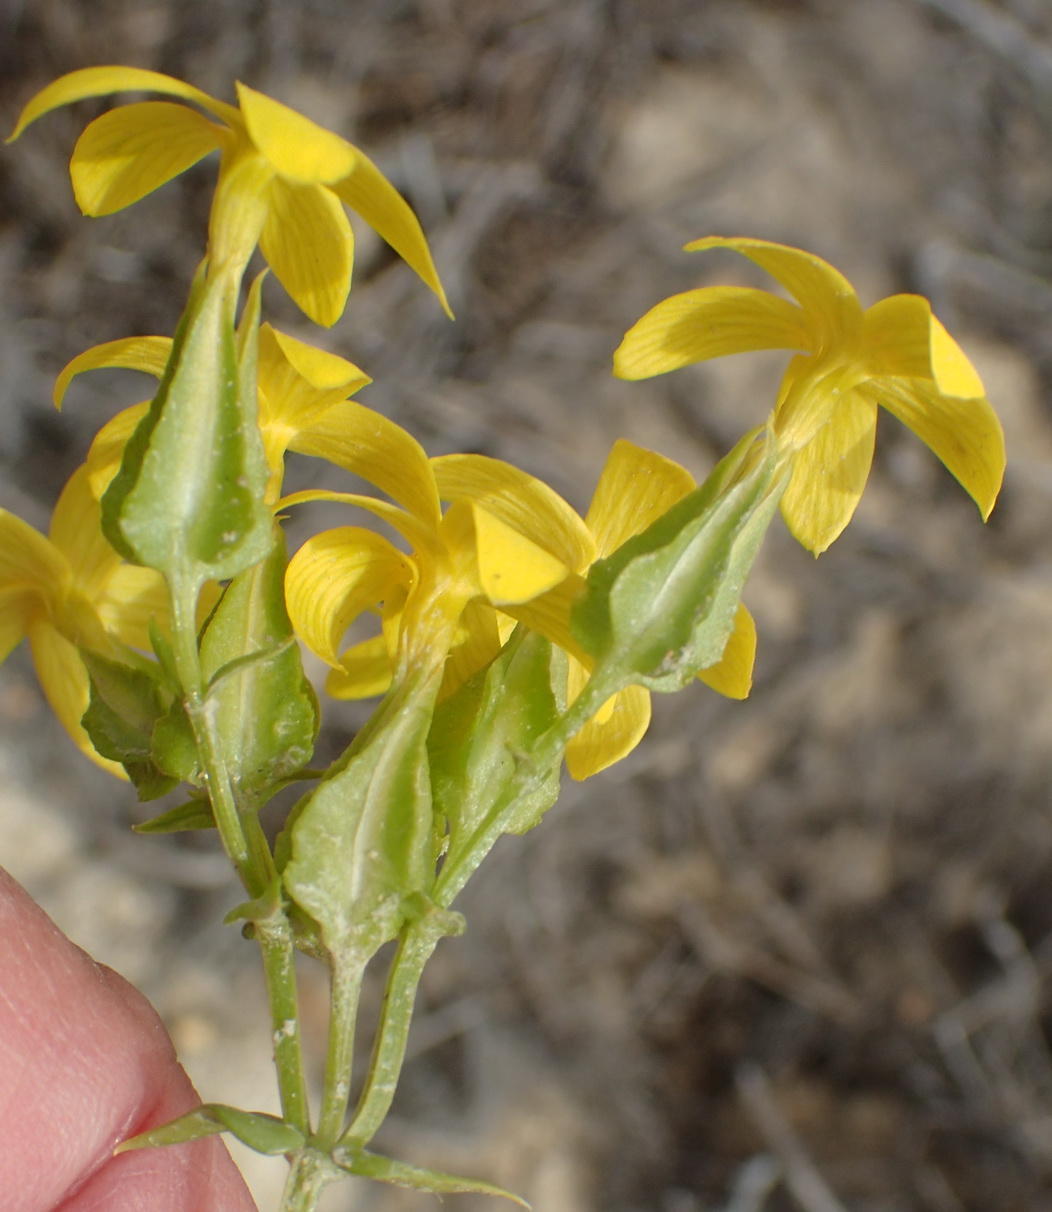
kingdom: Plantae
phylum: Tracheophyta
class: Magnoliopsida
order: Gentianales
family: Gentianaceae
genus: Sebaea
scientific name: Sebaea exacoides
